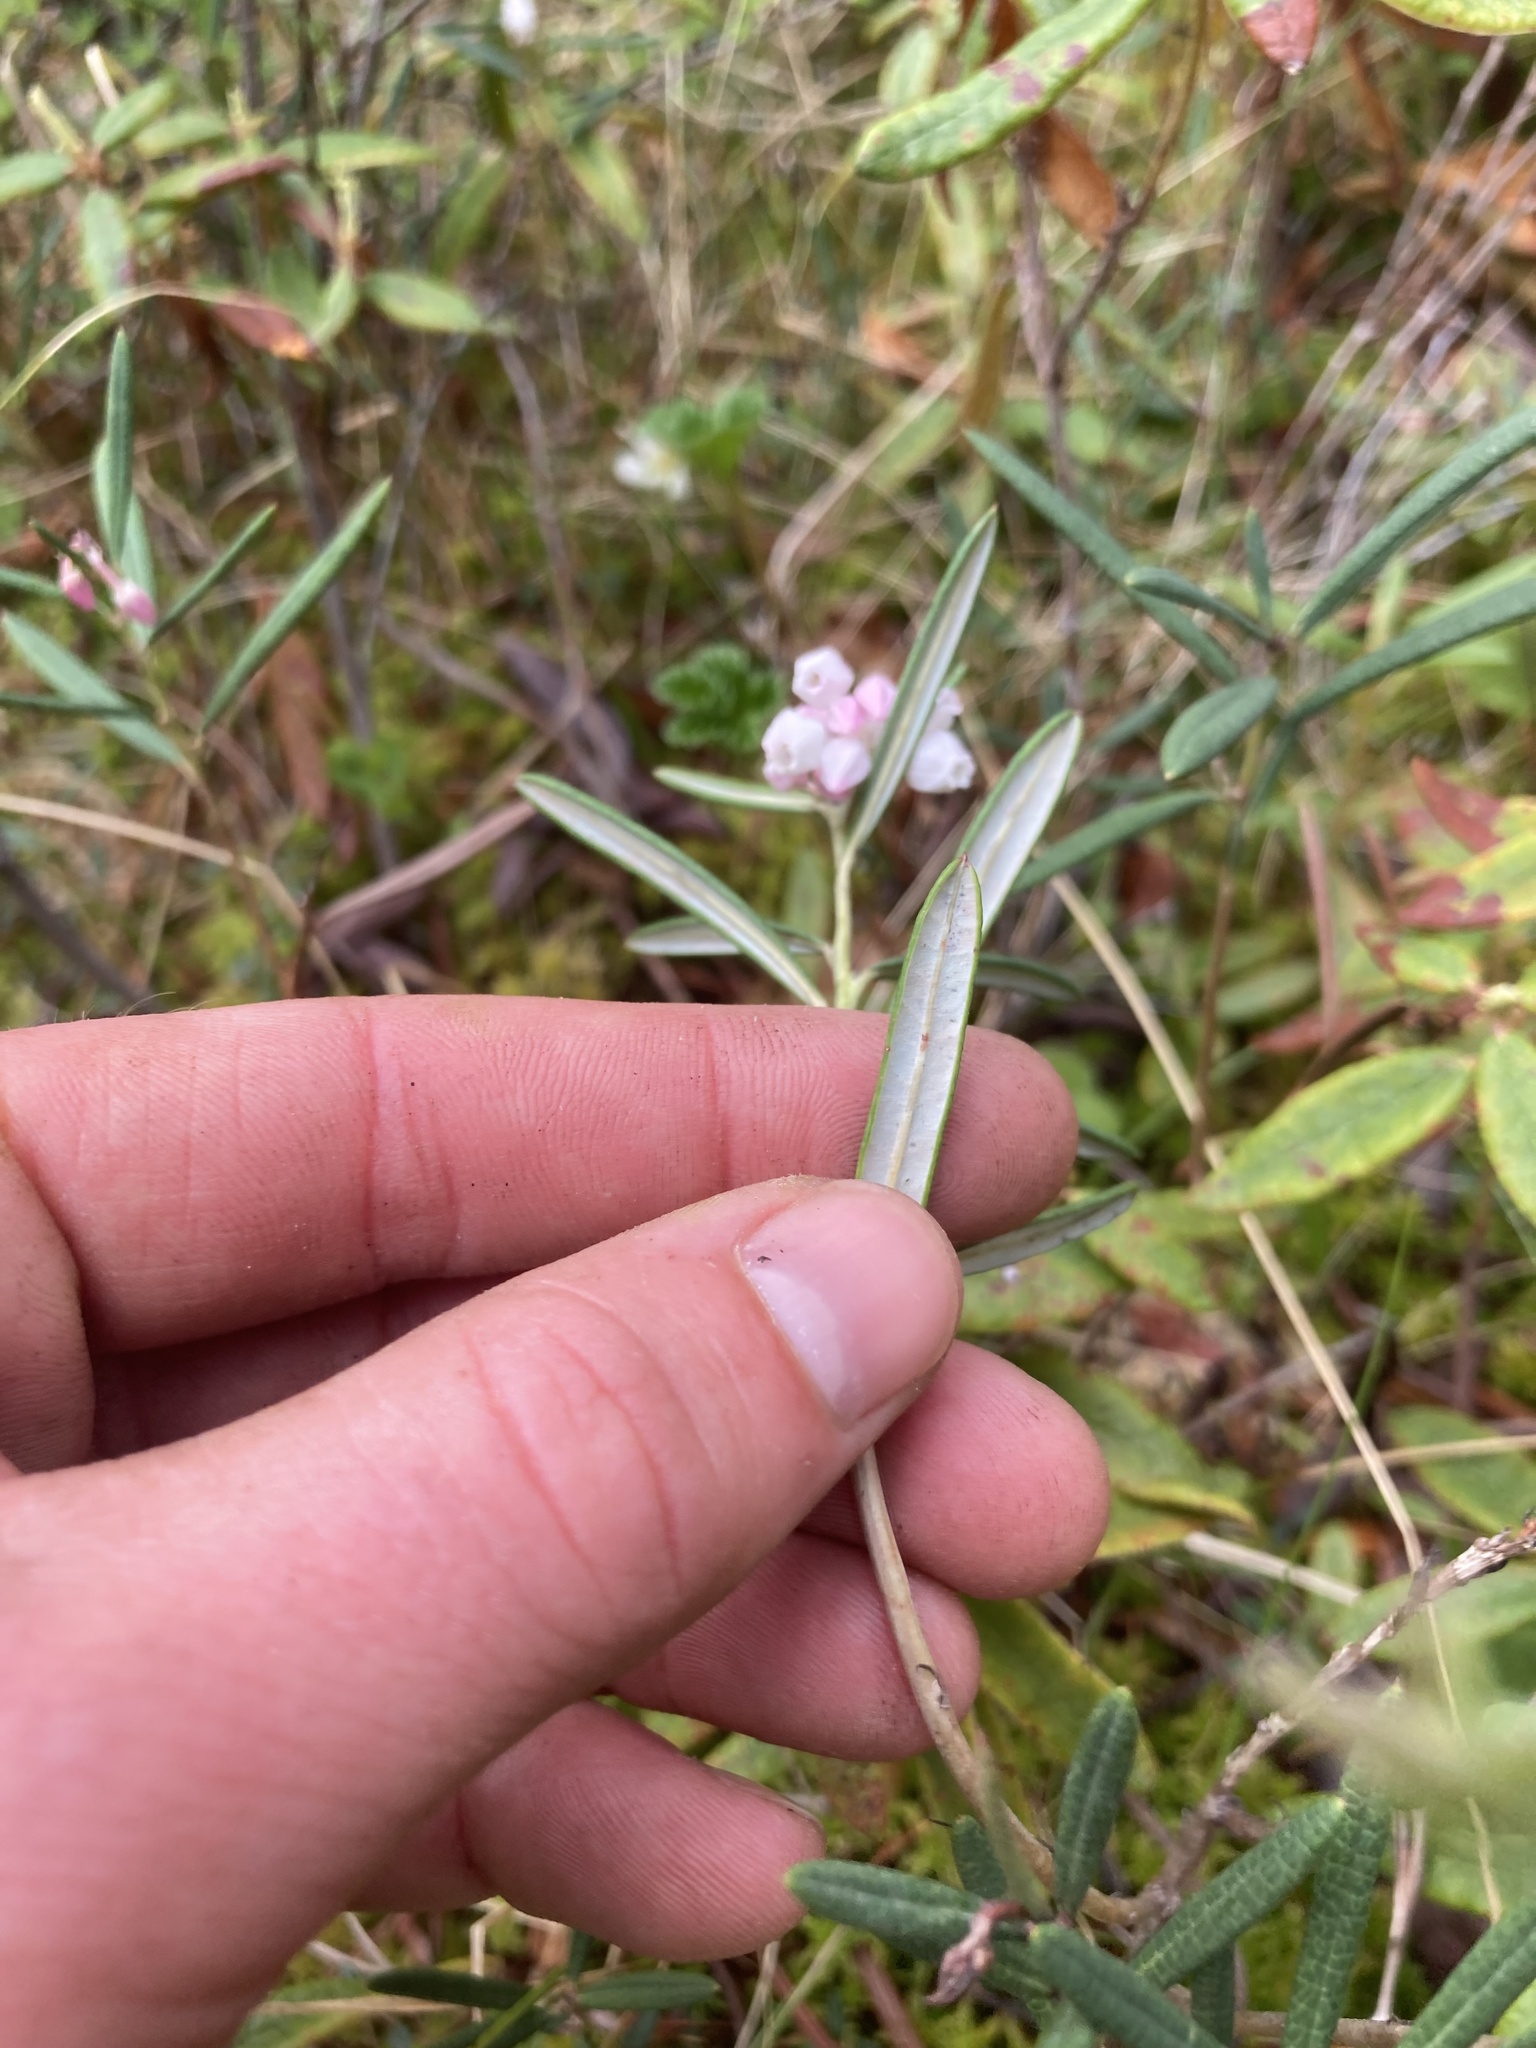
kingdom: Plantae
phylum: Tracheophyta
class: Magnoliopsida
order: Ericales
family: Ericaceae
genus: Andromeda
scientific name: Andromeda polifolia
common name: Bog-rosemary
